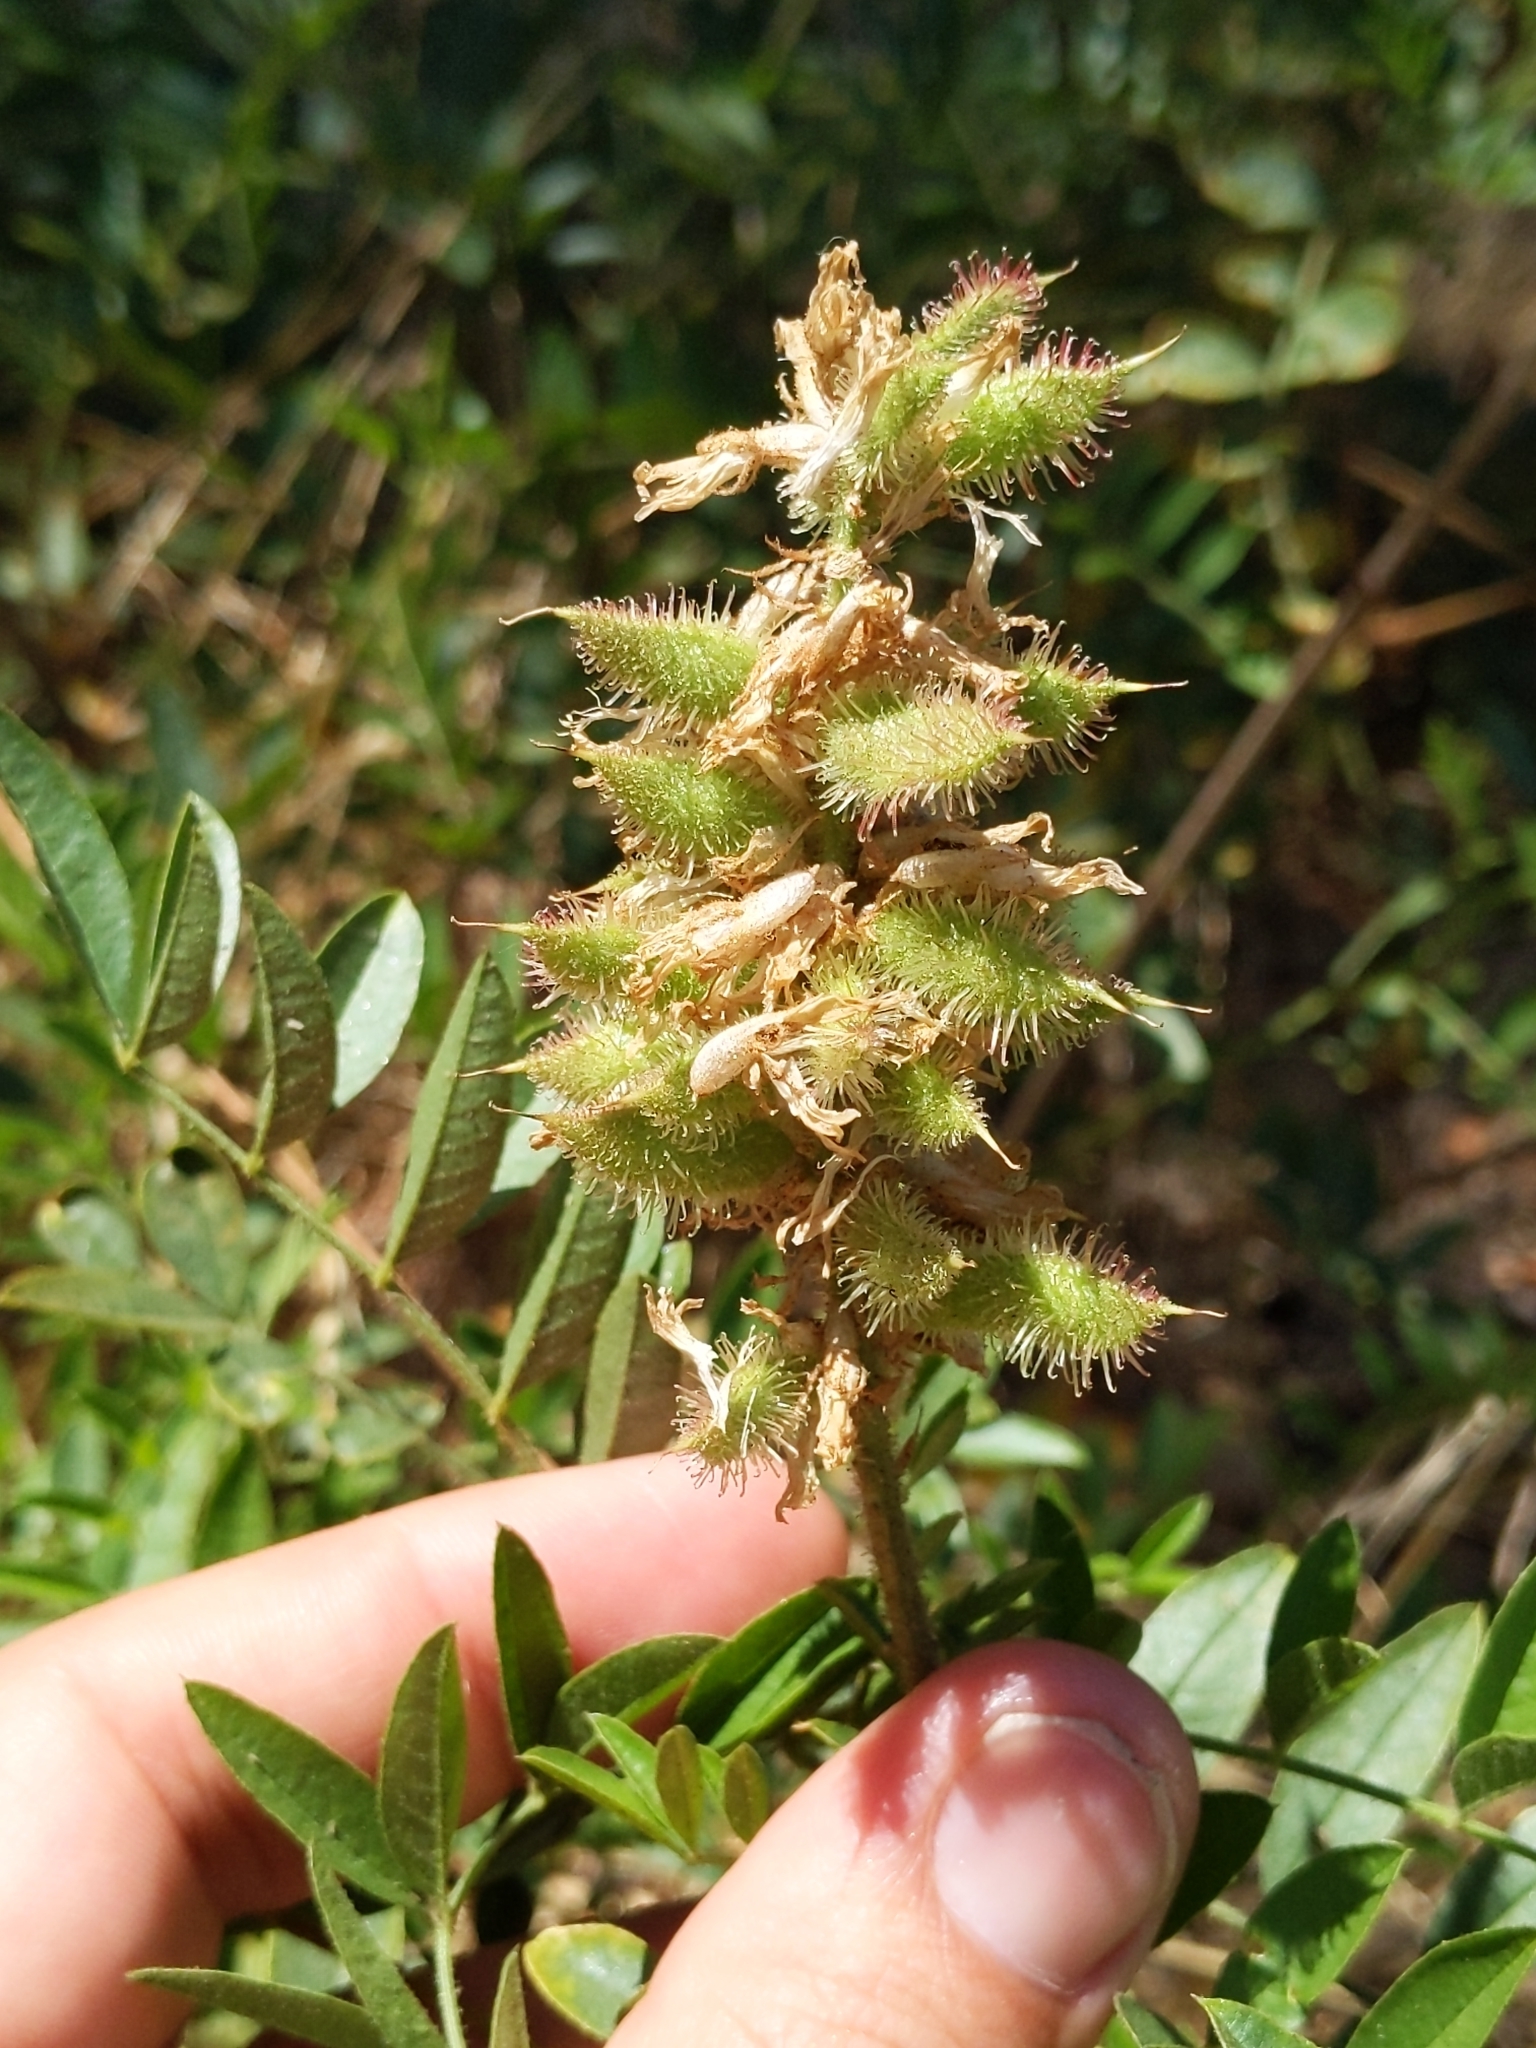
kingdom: Plantae
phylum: Tracheophyta
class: Magnoliopsida
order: Fabales
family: Fabaceae
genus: Glycyrrhiza
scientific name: Glycyrrhiza lepidota
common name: American liquorice
